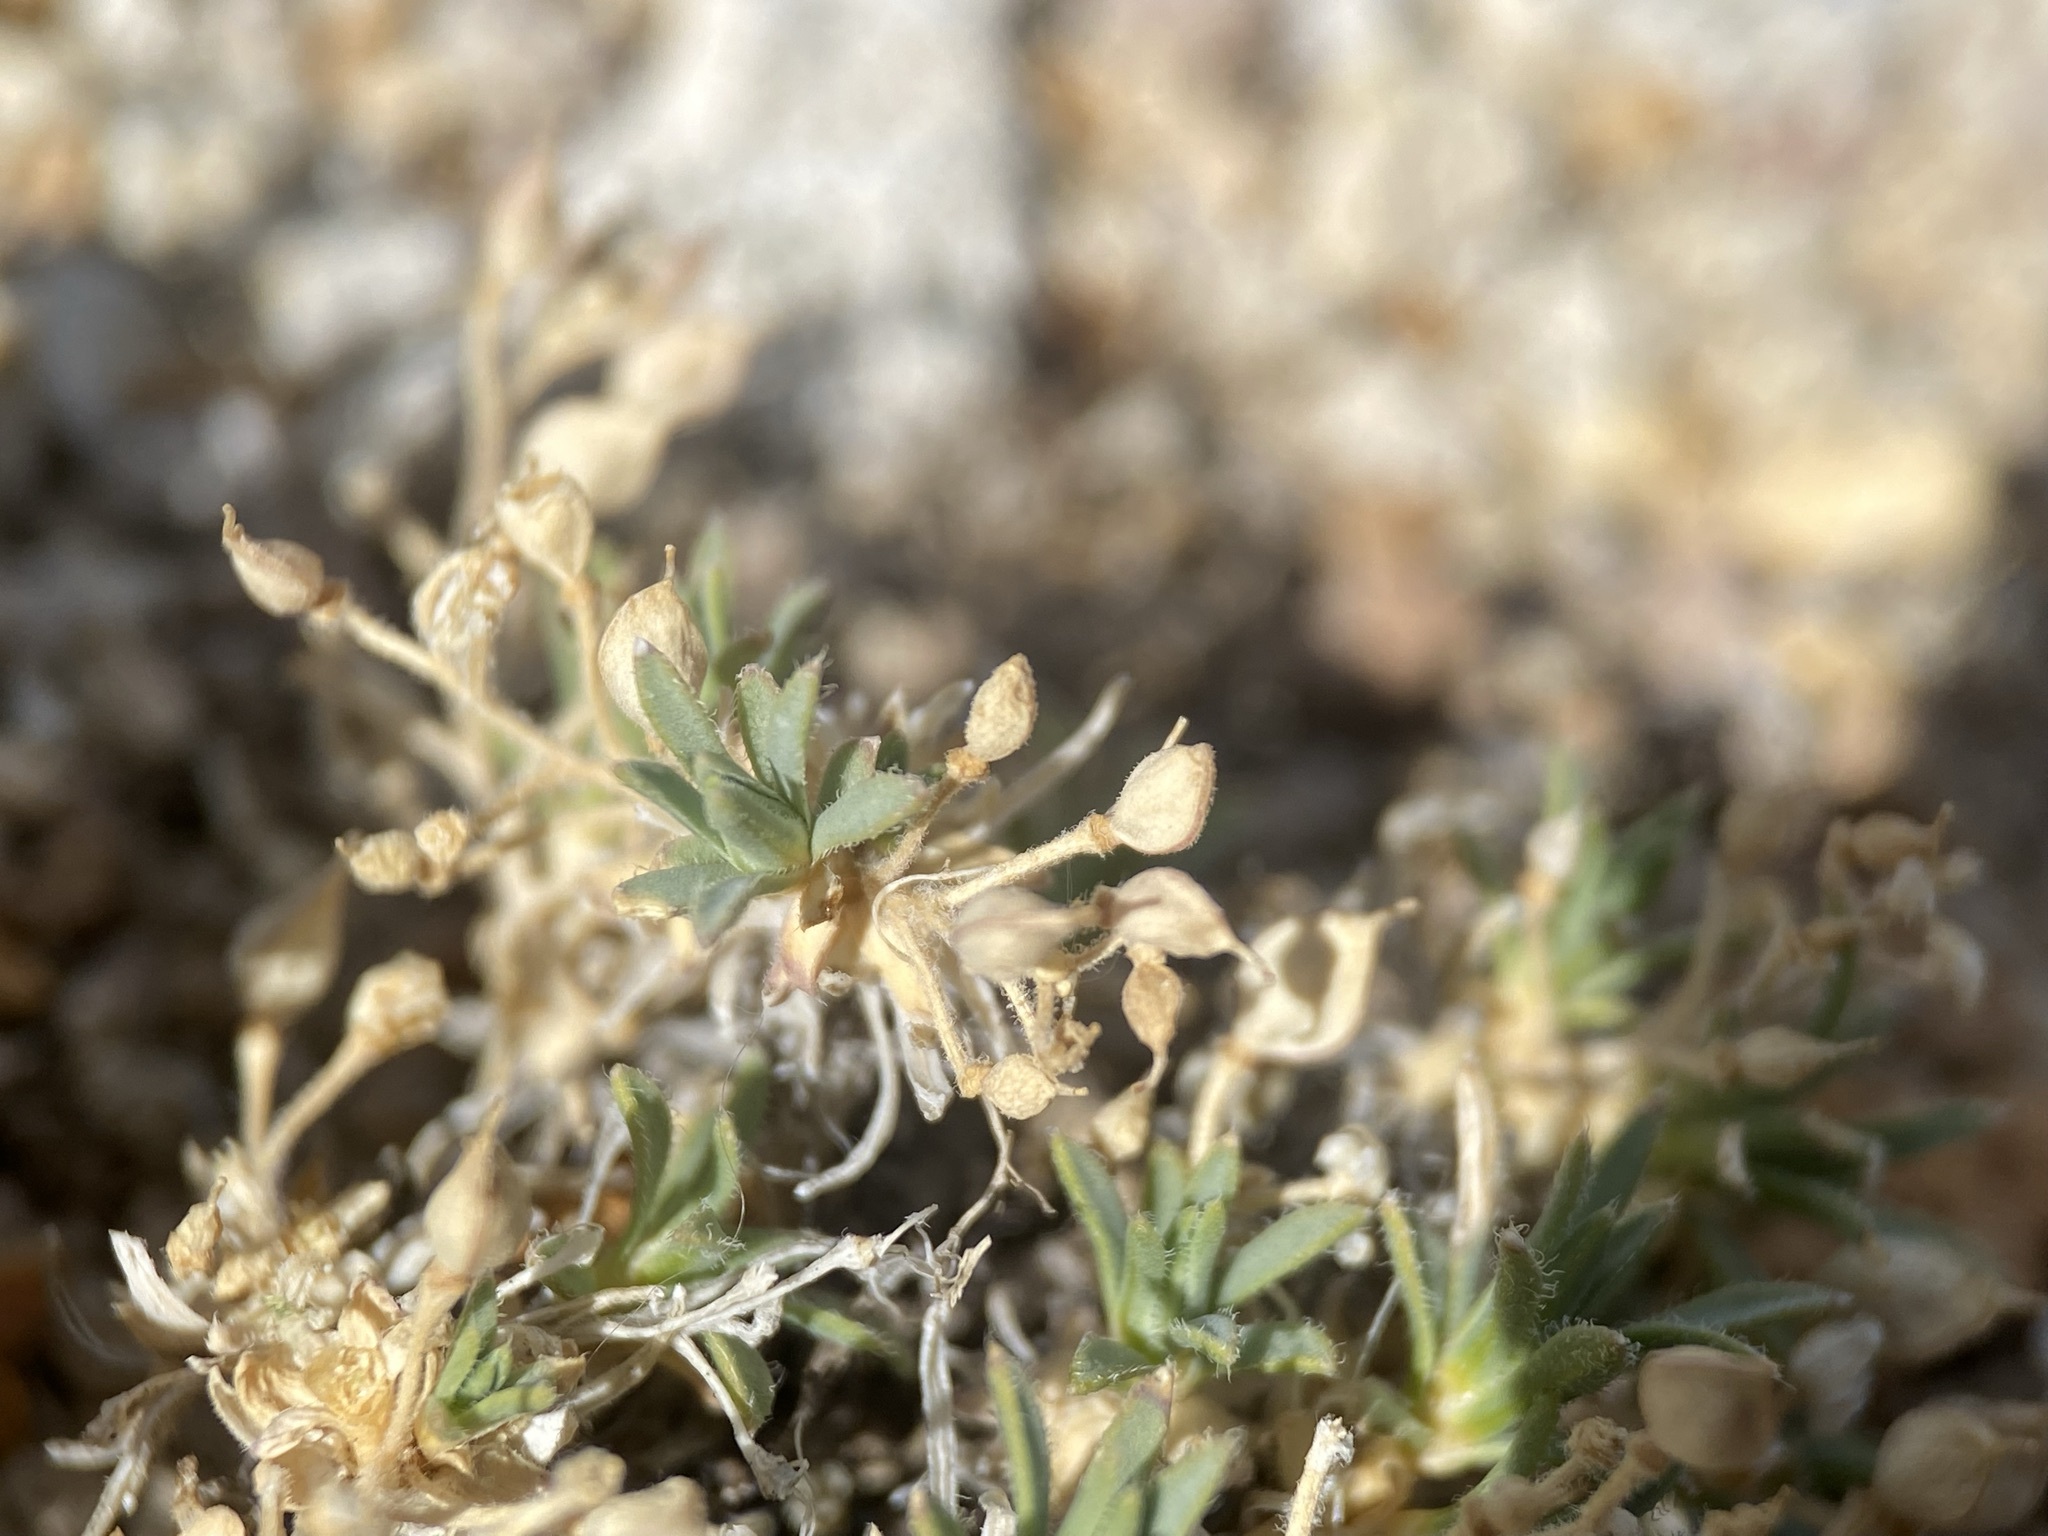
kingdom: Plantae
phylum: Tracheophyta
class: Magnoliopsida
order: Brassicales
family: Brassicaceae
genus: Cusickiella
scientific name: Cusickiella douglasii
